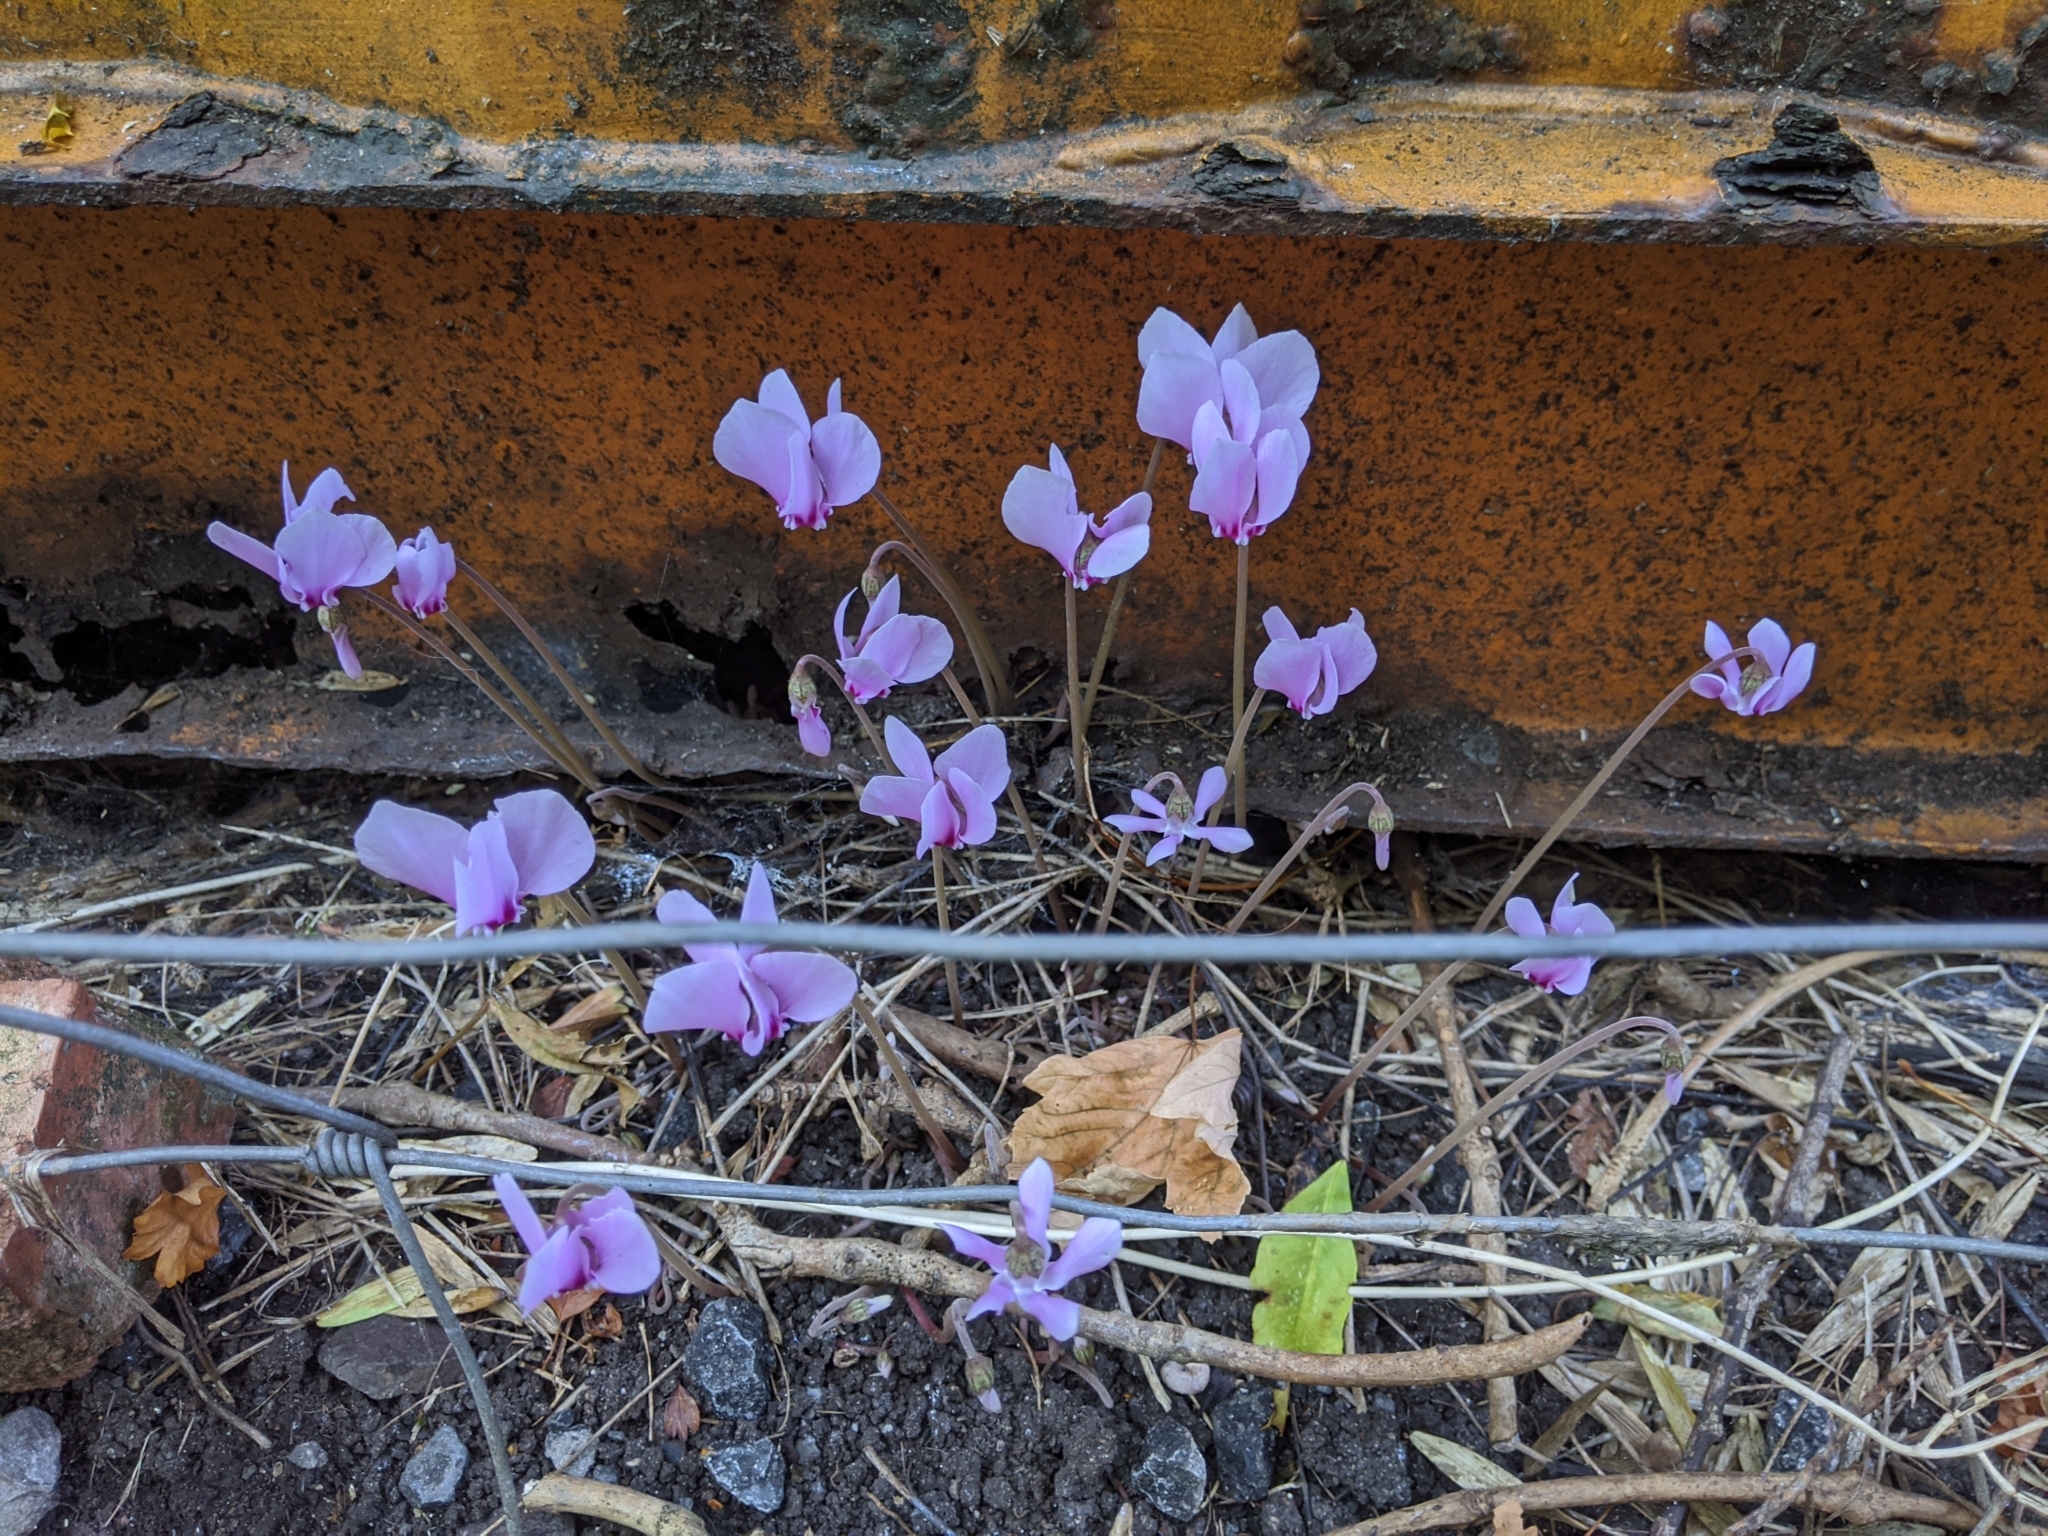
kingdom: Plantae
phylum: Tracheophyta
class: Magnoliopsida
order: Ericales
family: Primulaceae
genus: Cyclamen
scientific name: Cyclamen hederifolium
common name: Sowbread
